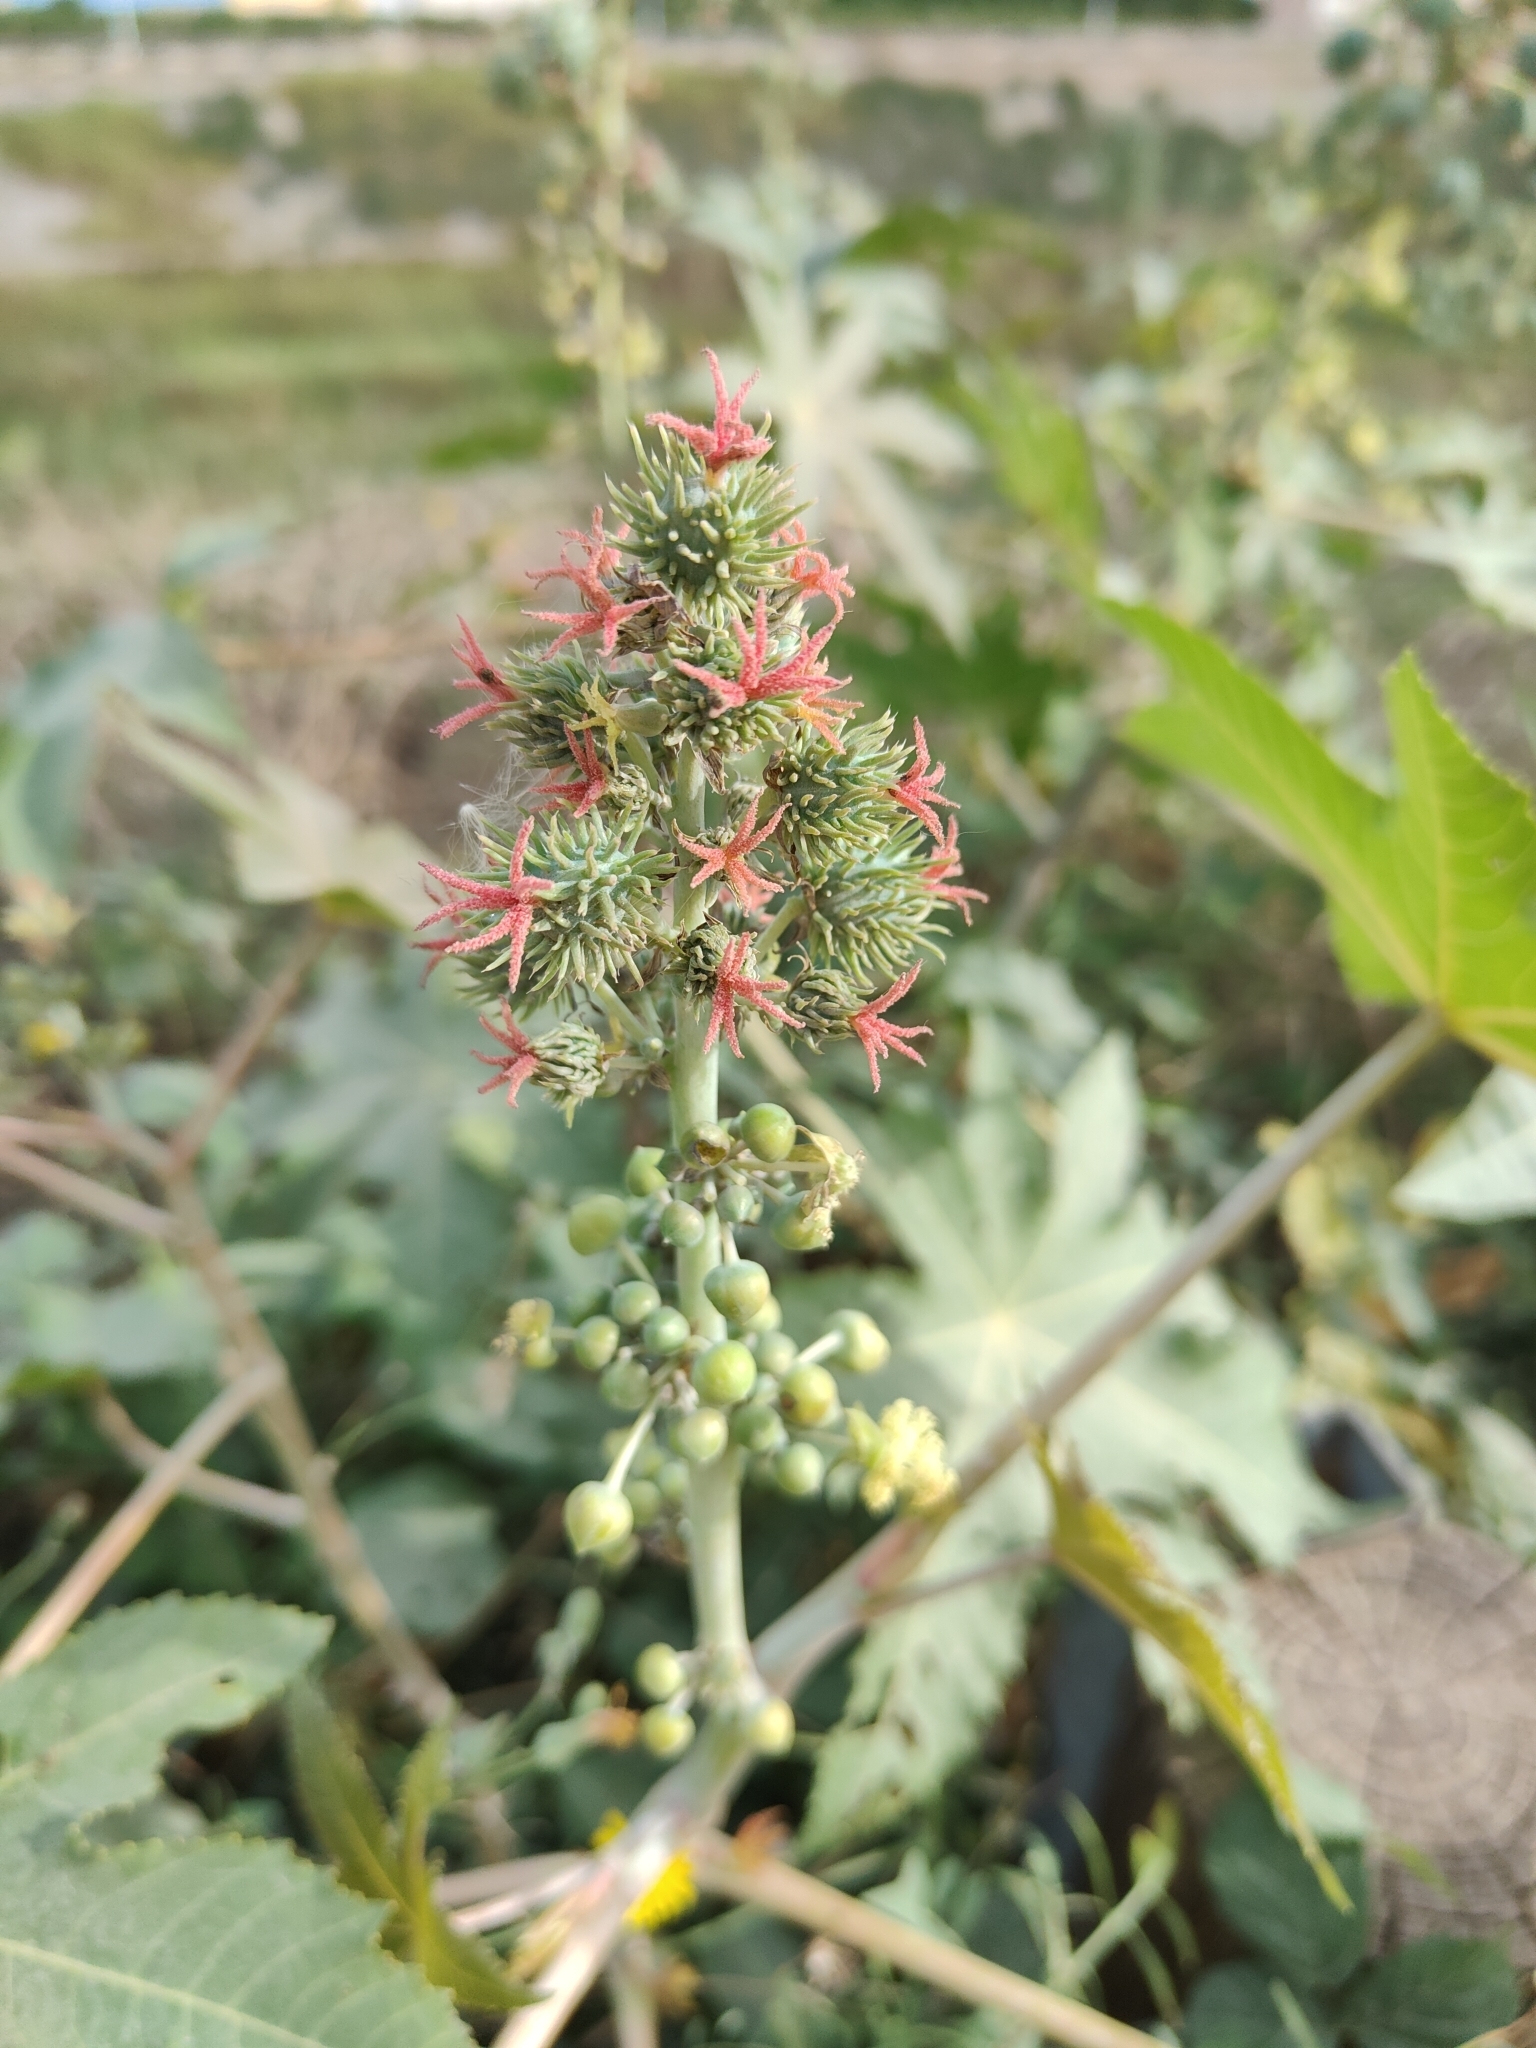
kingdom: Plantae
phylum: Tracheophyta
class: Magnoliopsida
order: Malpighiales
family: Euphorbiaceae
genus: Ricinus
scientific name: Ricinus communis
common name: Castor-oil-plant
